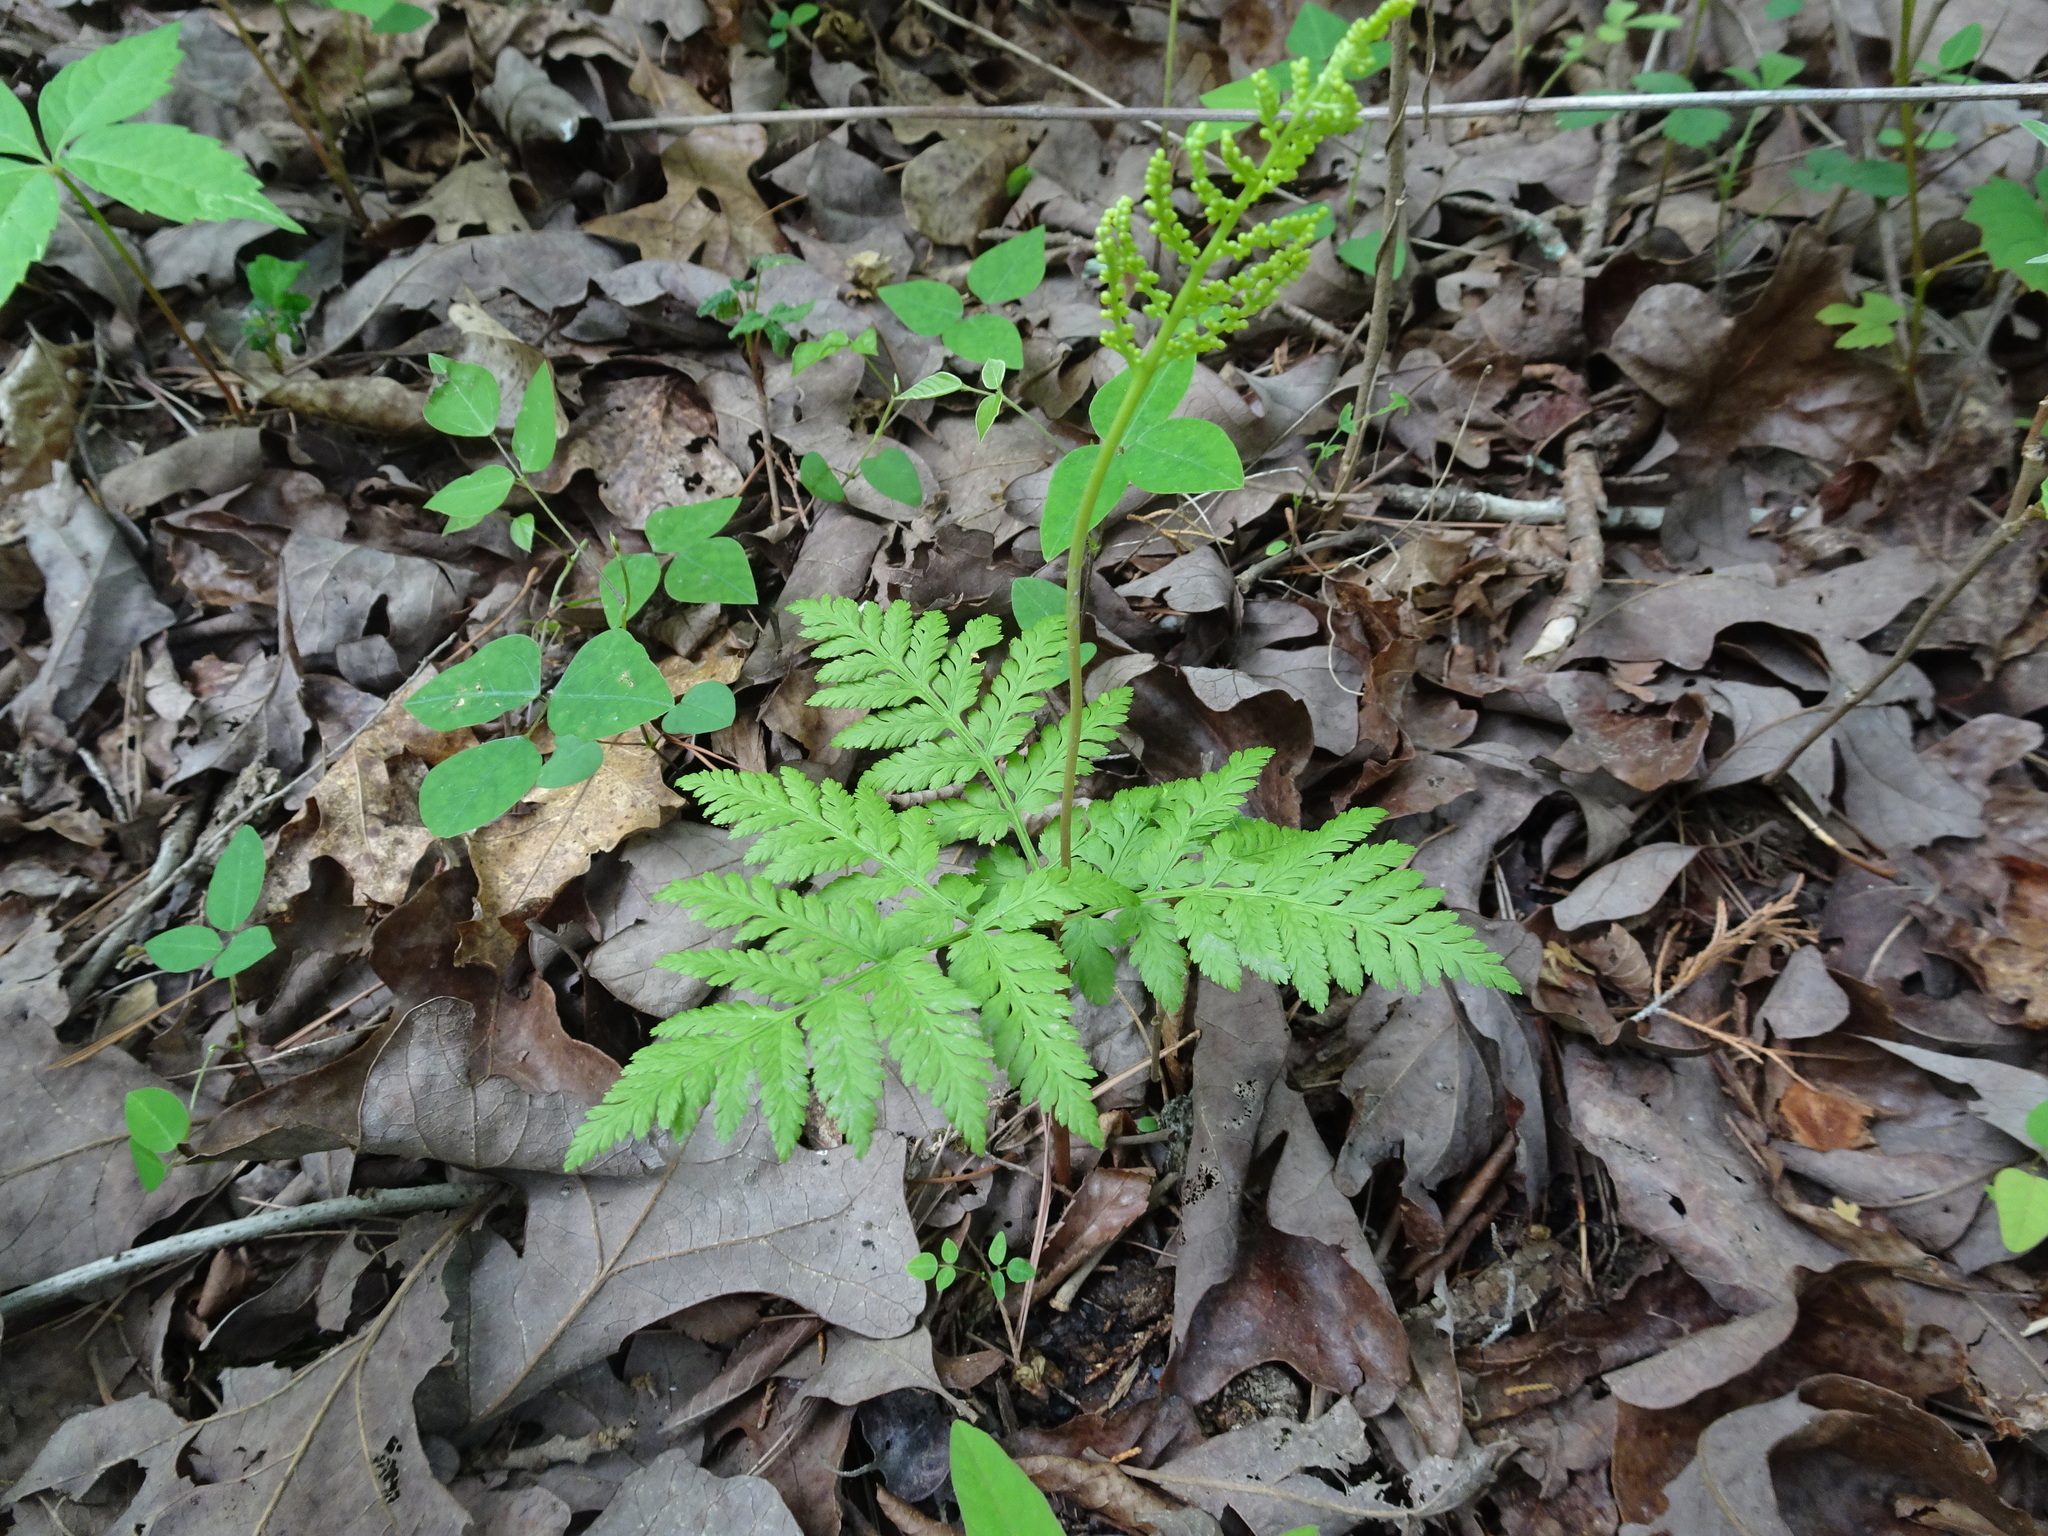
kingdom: Plantae
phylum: Tracheophyta
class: Polypodiopsida
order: Ophioglossales
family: Ophioglossaceae
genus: Botrypus
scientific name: Botrypus virginianus
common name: Common grapefern
